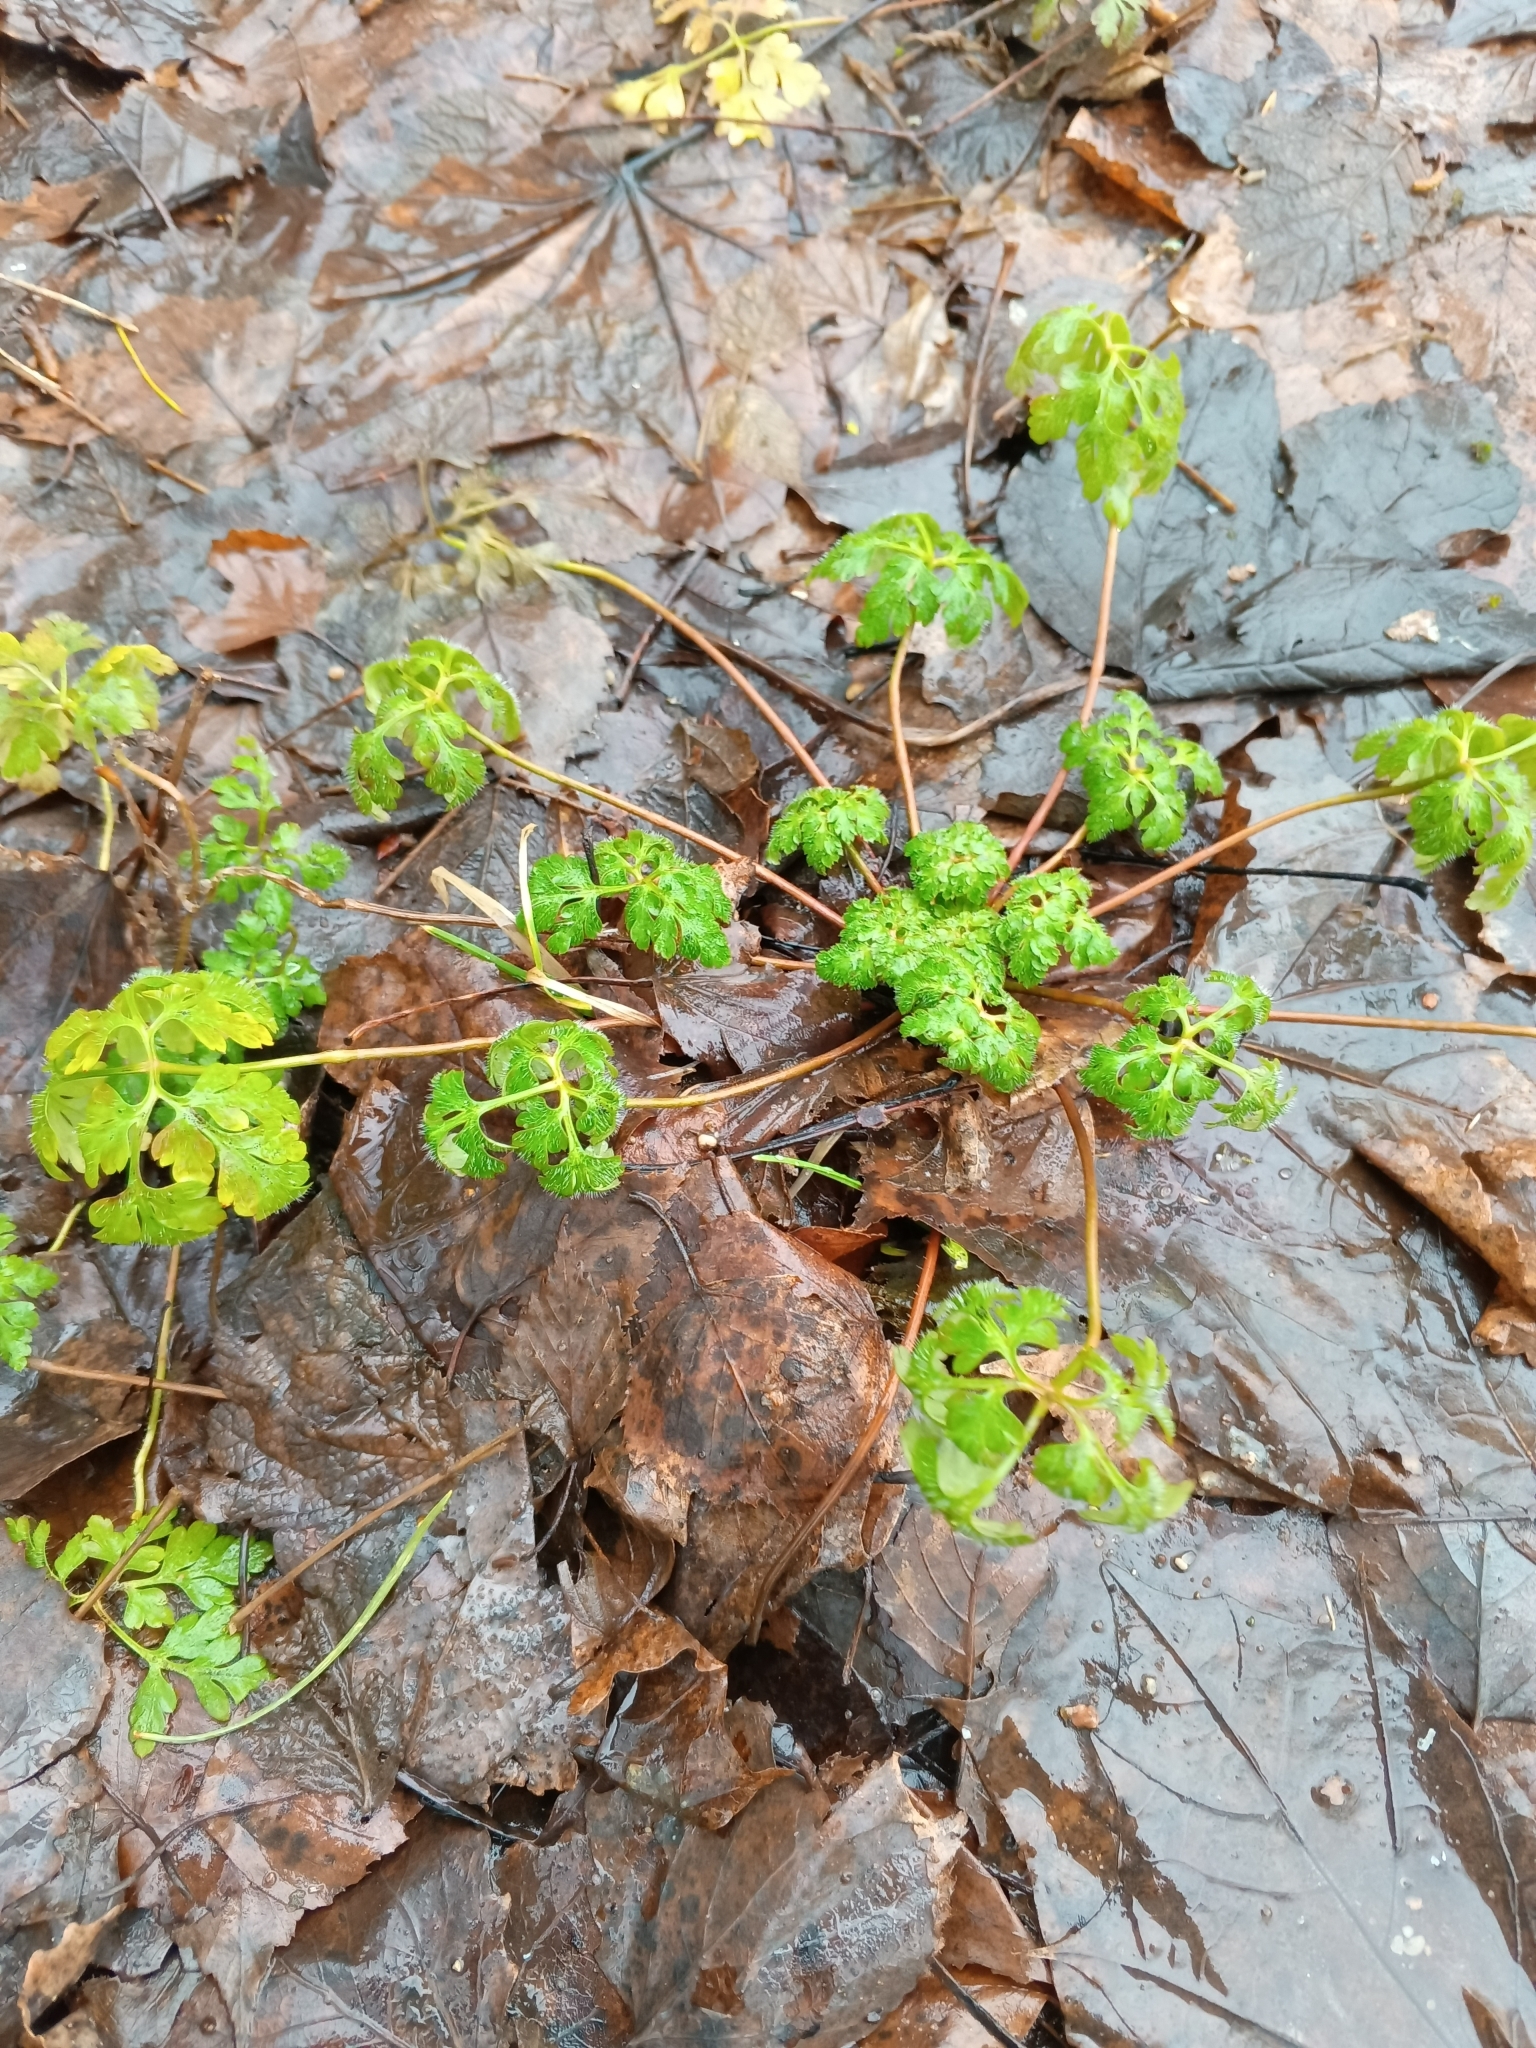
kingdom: Plantae
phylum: Tracheophyta
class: Magnoliopsida
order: Geraniales
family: Geraniaceae
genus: Geranium
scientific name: Geranium robertianum
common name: Herb-robert
